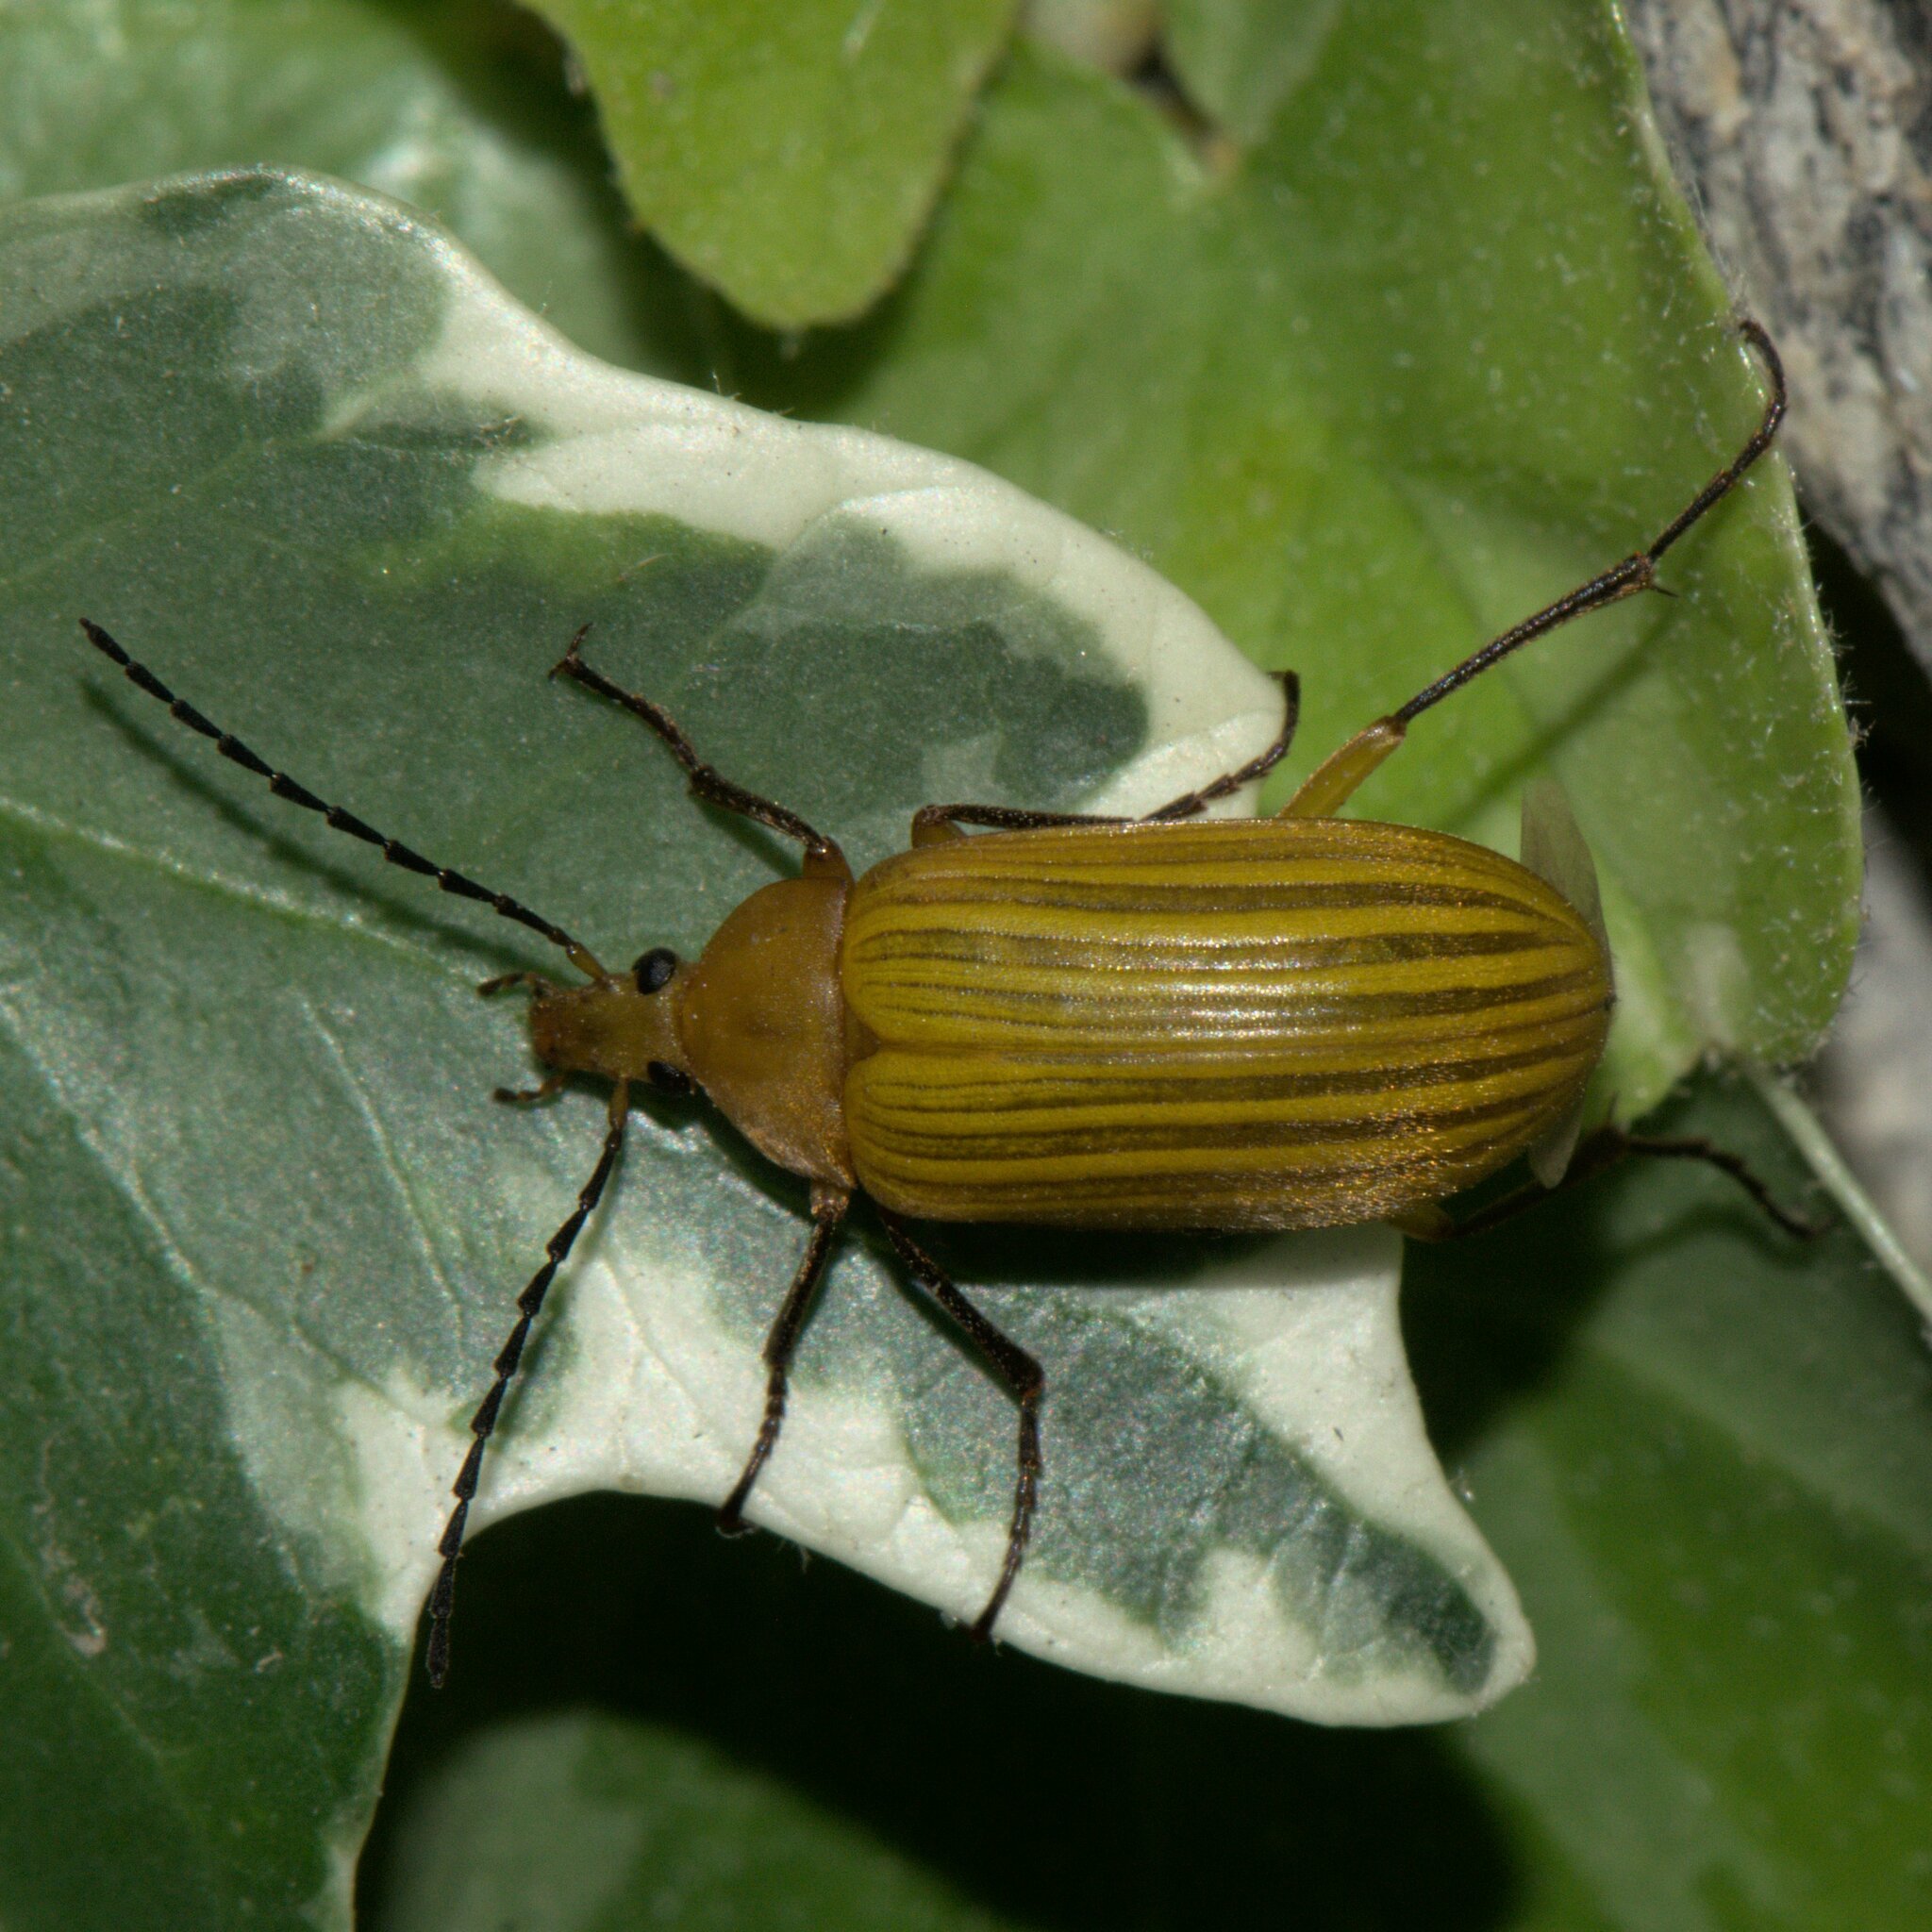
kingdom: Animalia
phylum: Arthropoda
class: Insecta
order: Coleoptera
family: Tenebrionidae
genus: Cistelomorpha
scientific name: Cistelomorpha
